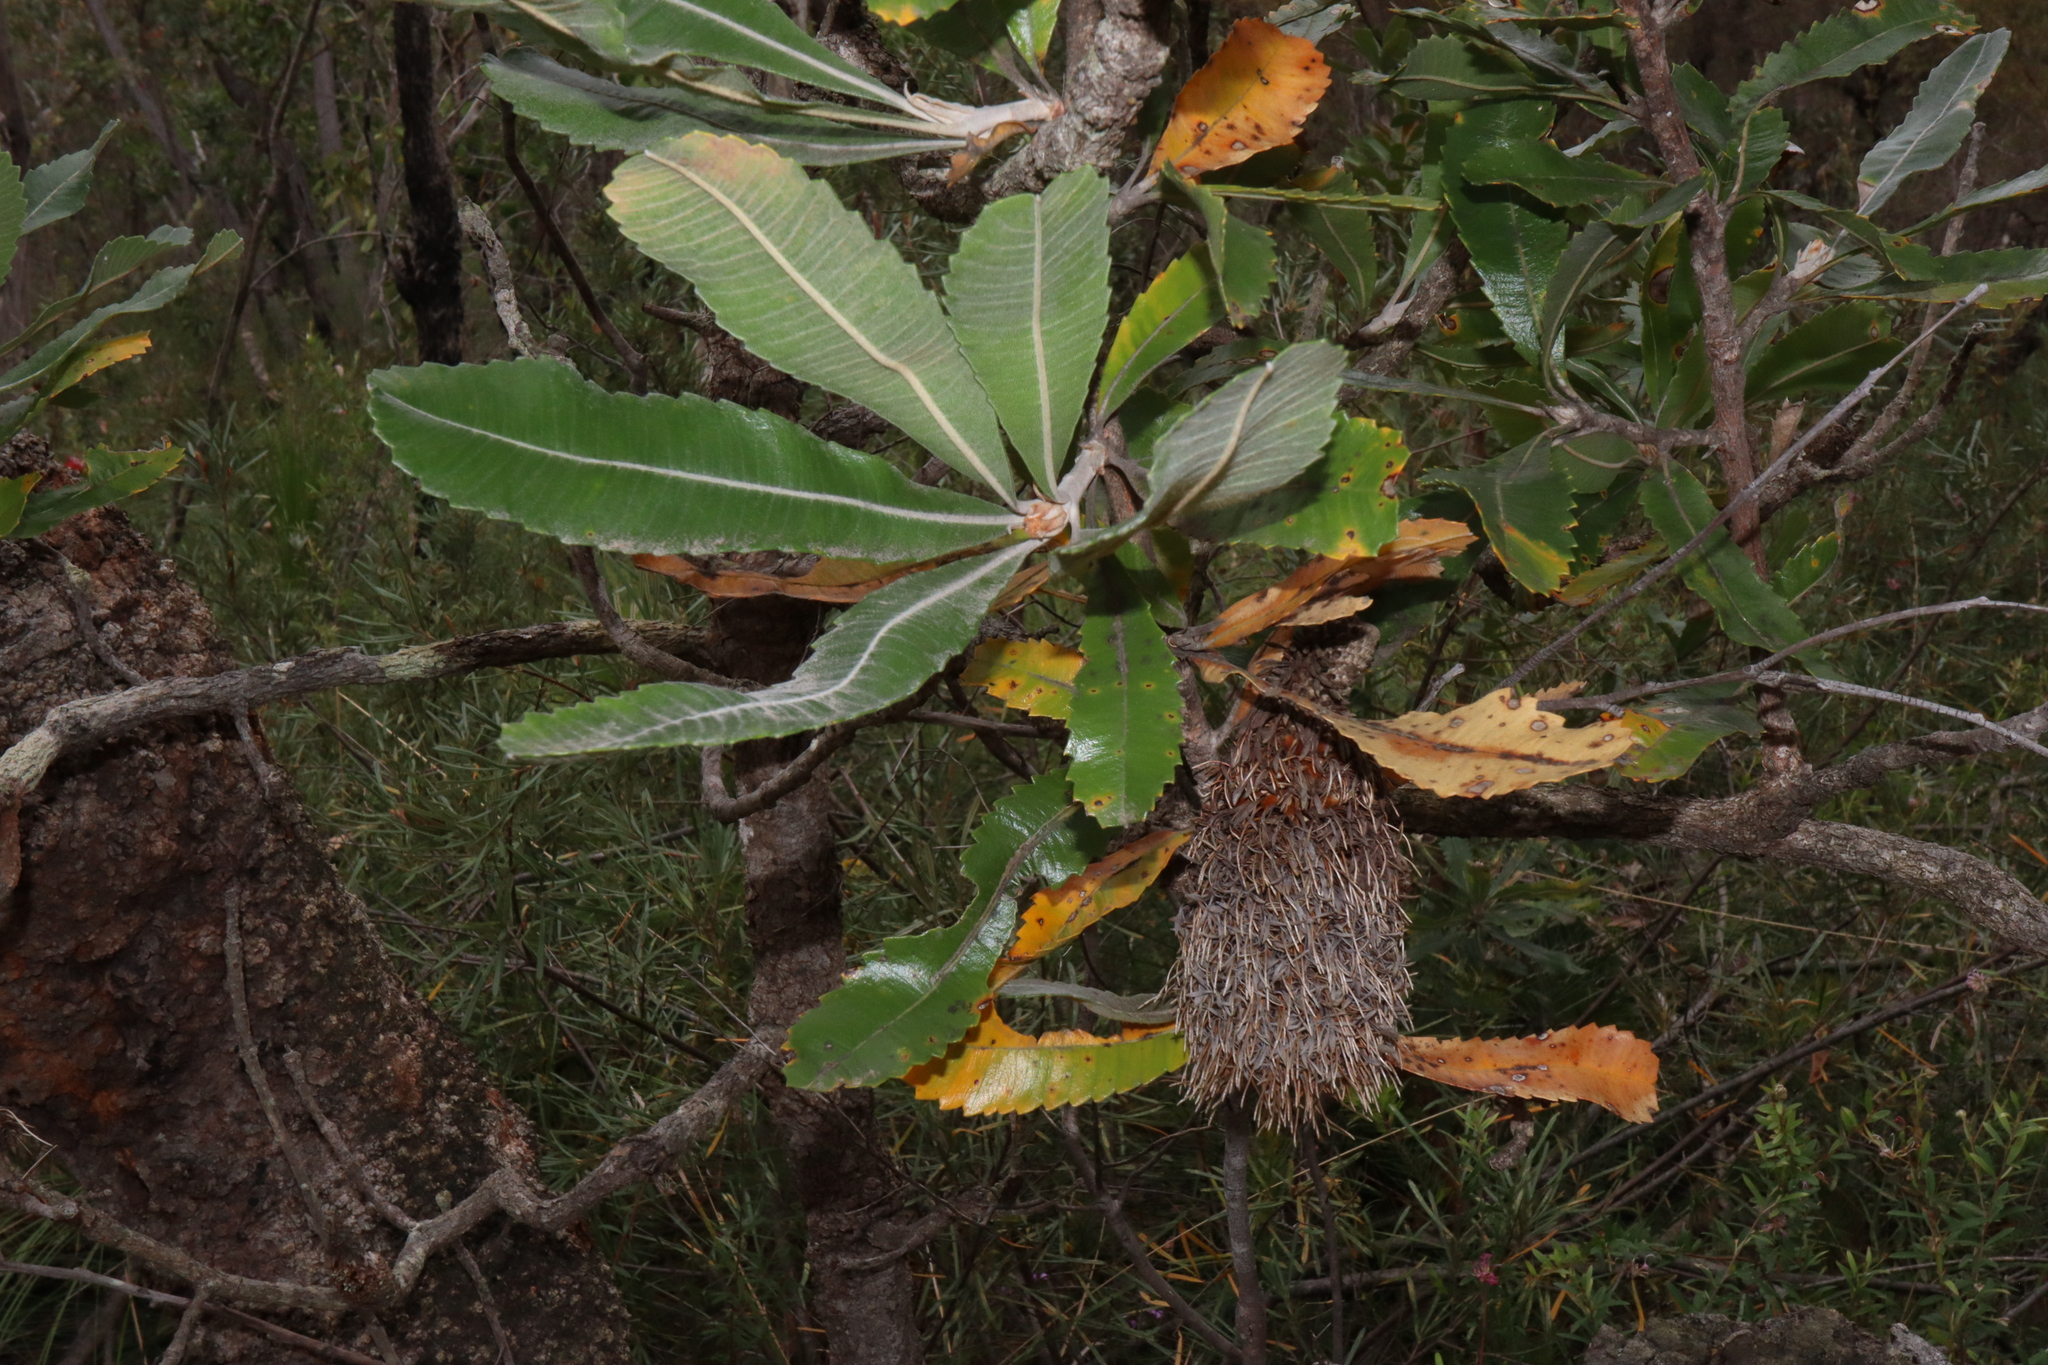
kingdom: Plantae
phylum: Tracheophyta
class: Magnoliopsida
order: Proteales
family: Proteaceae
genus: Banksia
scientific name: Banksia serrata
